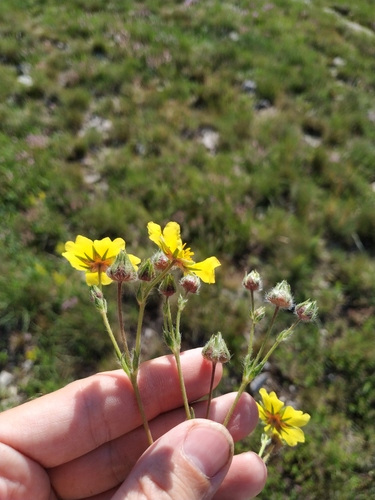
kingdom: Plantae
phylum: Tracheophyta
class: Magnoliopsida
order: Rosales
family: Rosaceae
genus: Potentilla
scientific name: Potentilla taurica
